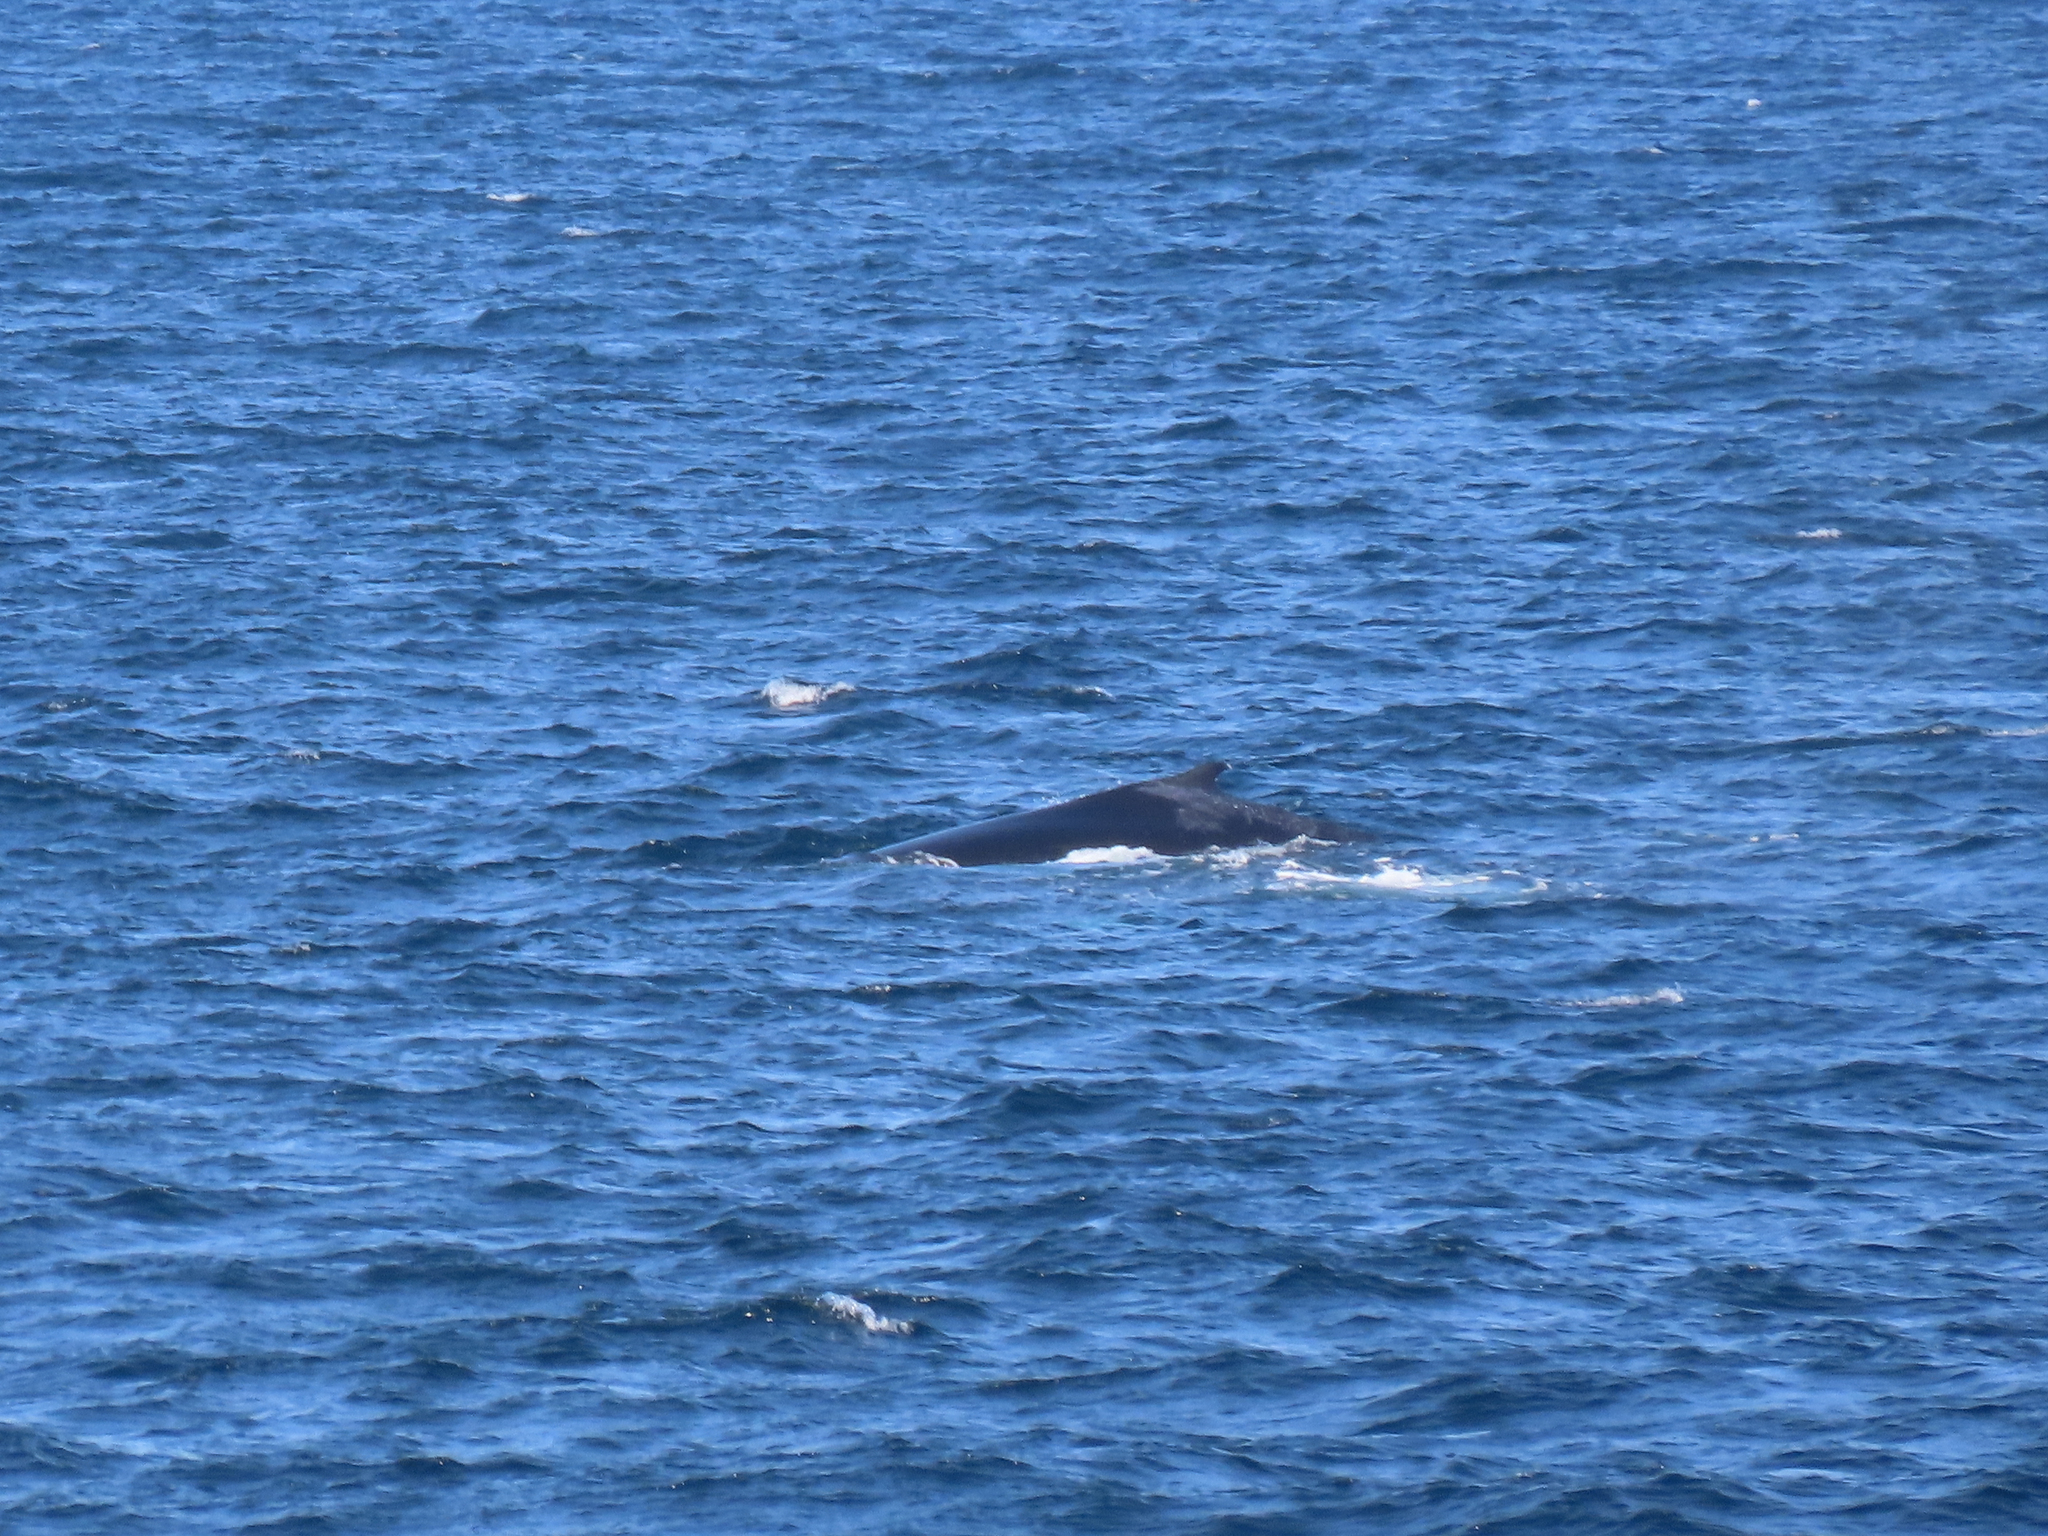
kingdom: Animalia
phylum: Chordata
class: Mammalia
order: Cetacea
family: Balaenopteridae
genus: Megaptera
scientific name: Megaptera novaeangliae
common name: Humpback whale
